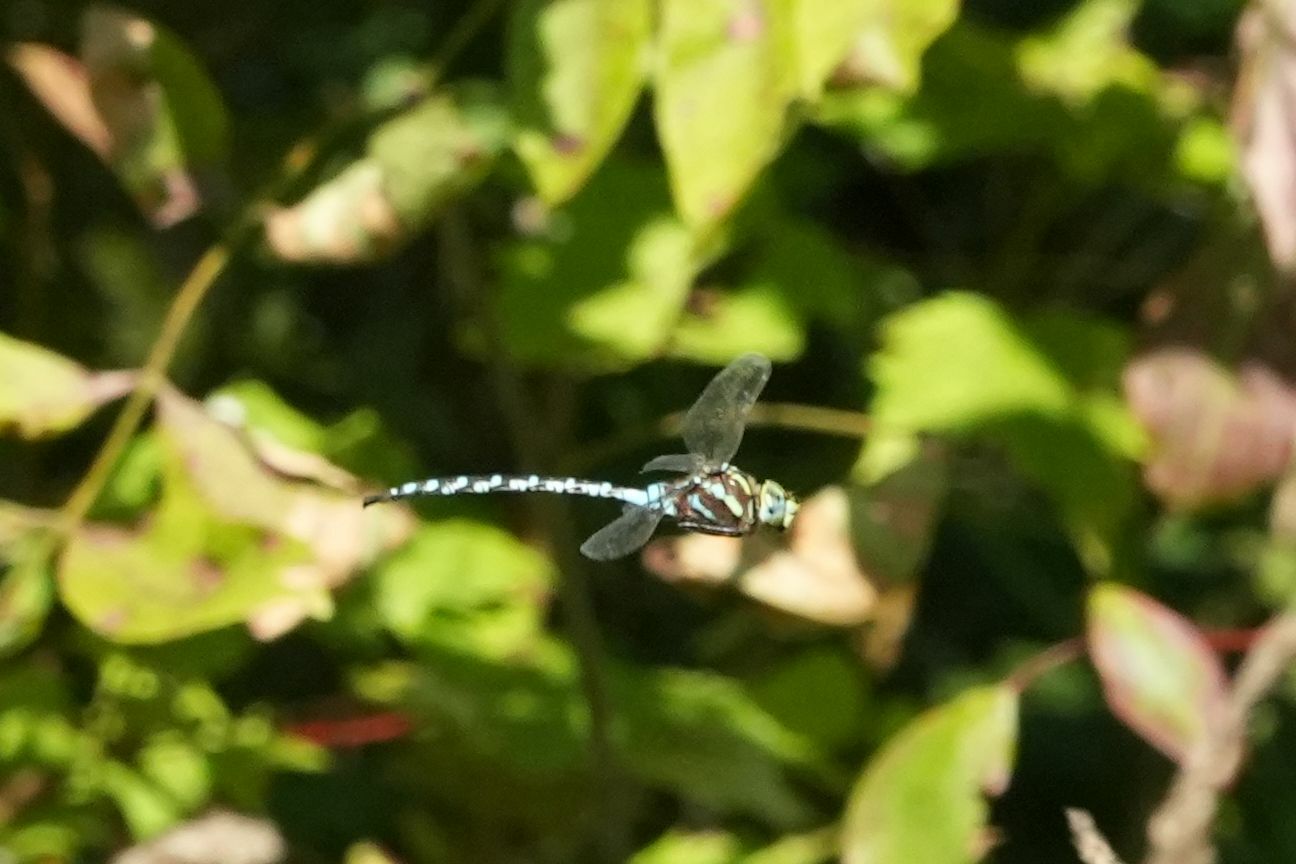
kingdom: Animalia
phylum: Arthropoda
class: Insecta
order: Odonata
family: Aeshnidae
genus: Aeshna
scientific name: Aeshna constricta
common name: Lance-tipped darner
